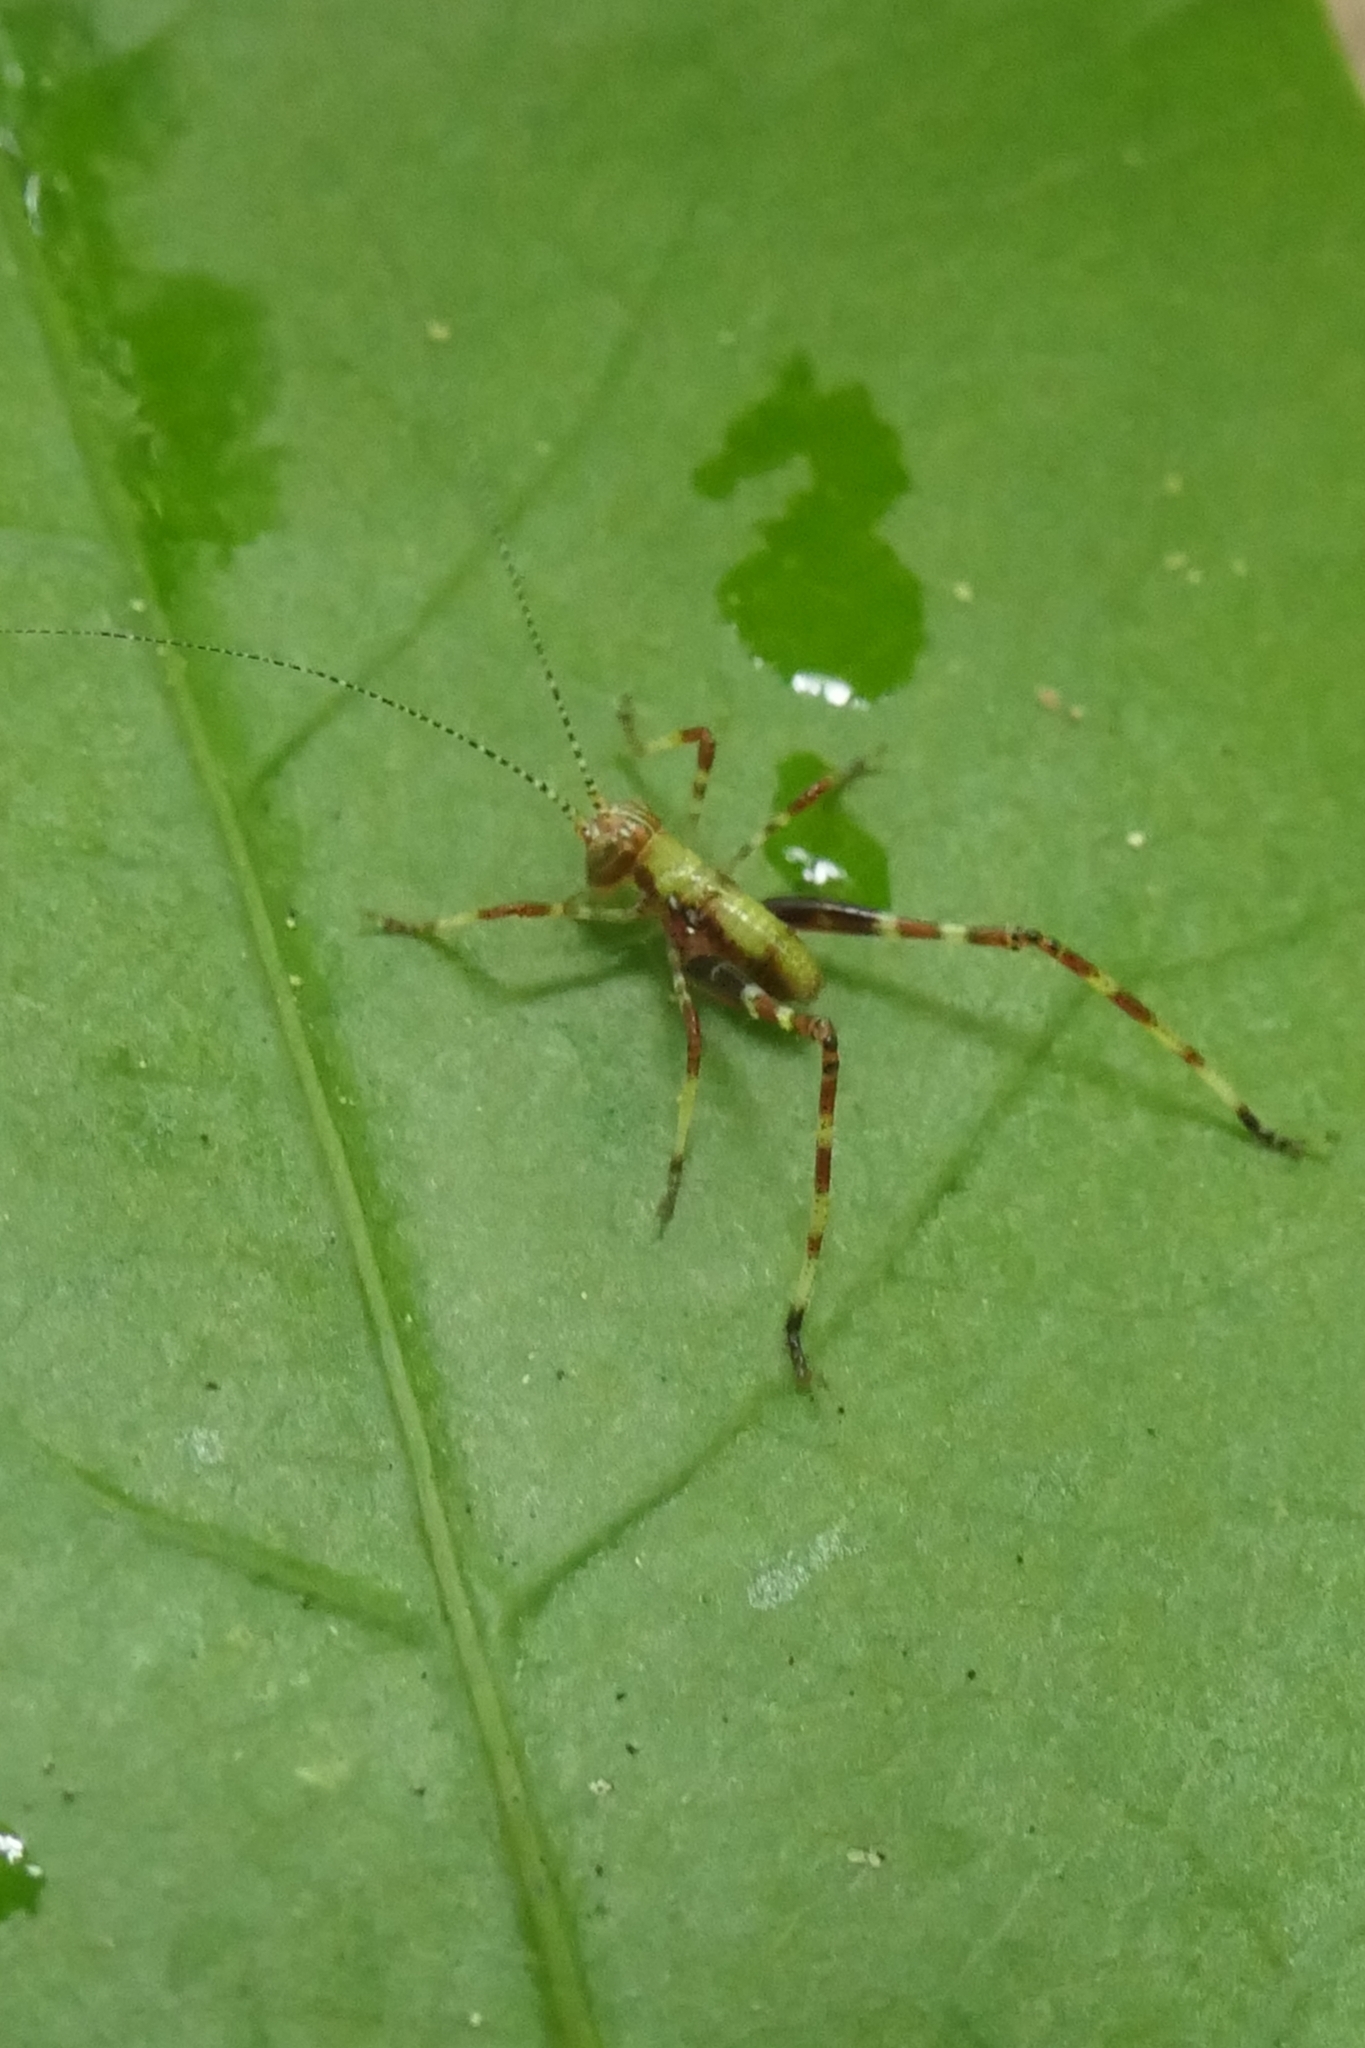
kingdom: Animalia
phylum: Arthropoda
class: Insecta
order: Orthoptera
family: Tettigoniidae
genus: Caedicia
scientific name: Caedicia simplex
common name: Common garden katydid
